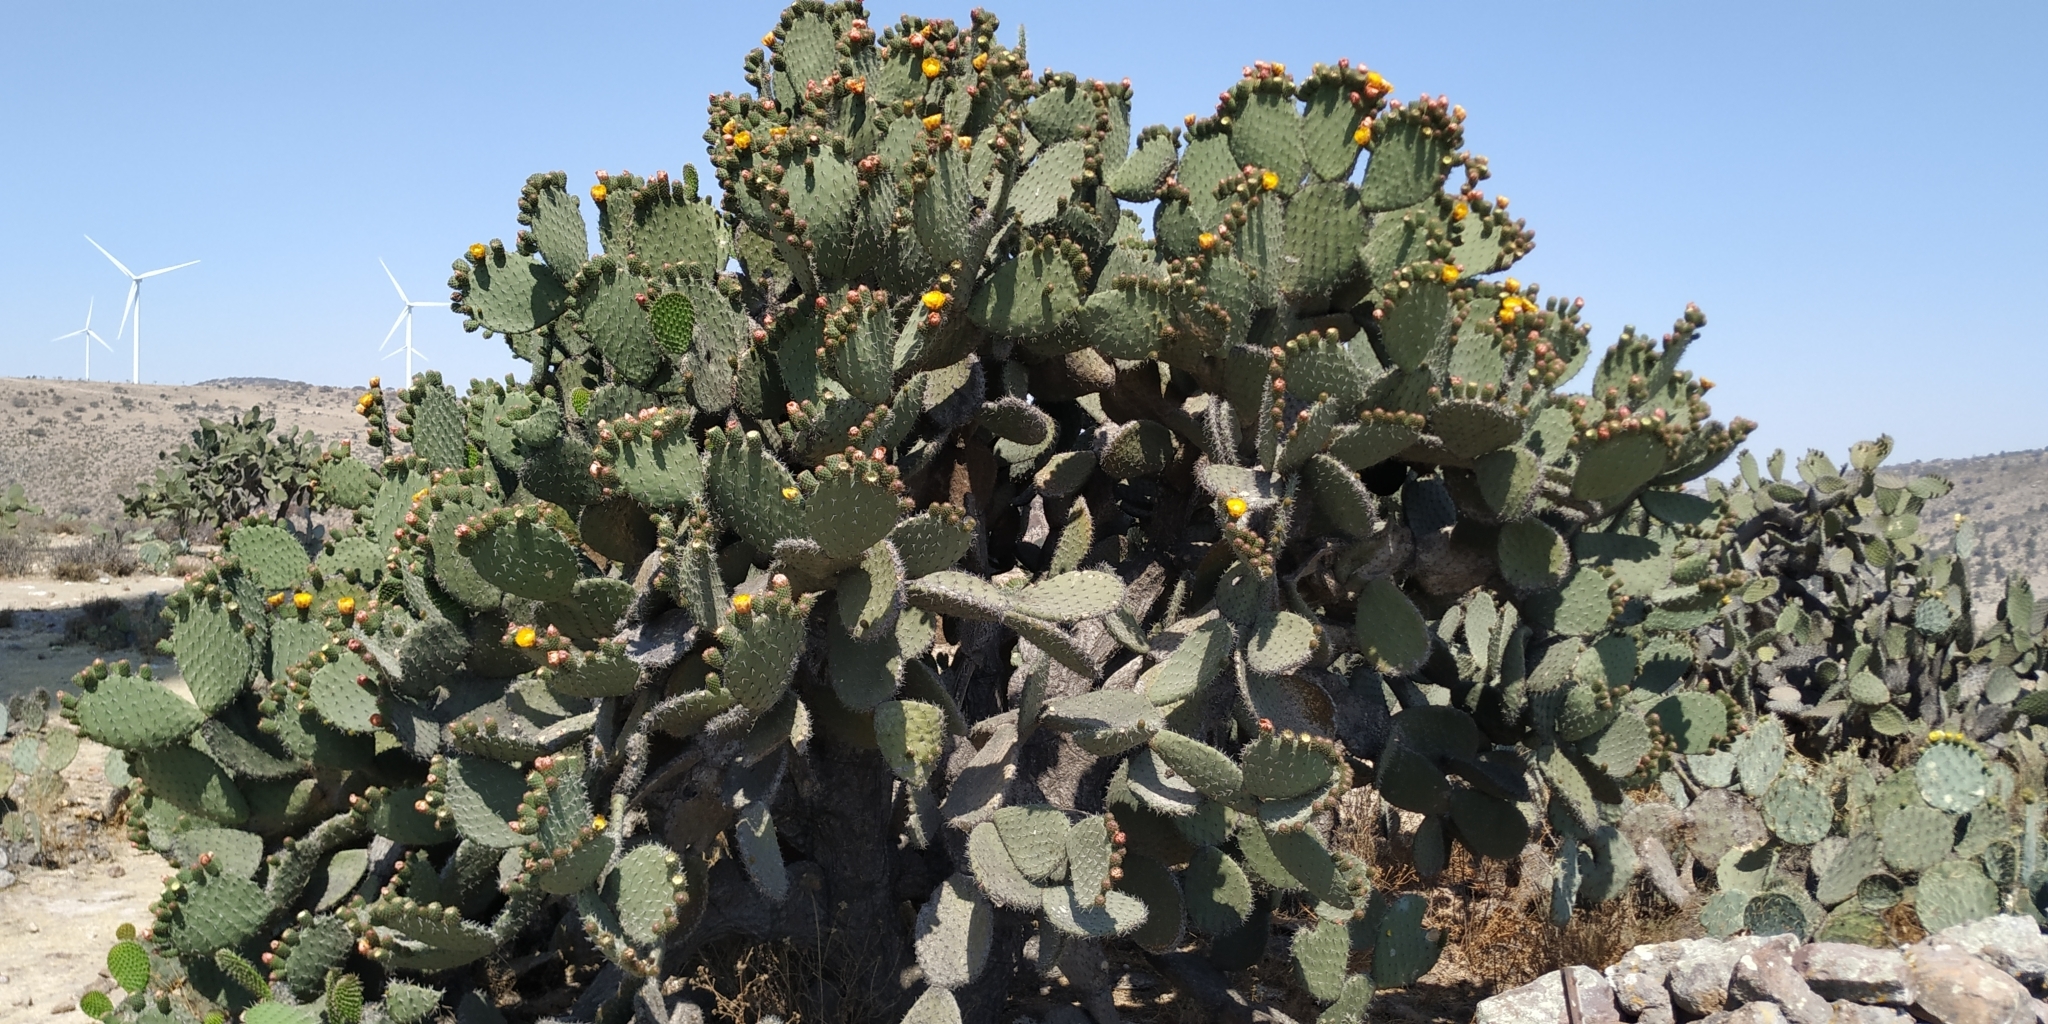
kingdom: Plantae
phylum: Tracheophyta
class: Magnoliopsida
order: Caryophyllales
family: Cactaceae
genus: Opuntia
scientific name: Opuntia streptacantha
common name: Gracemere-pear
